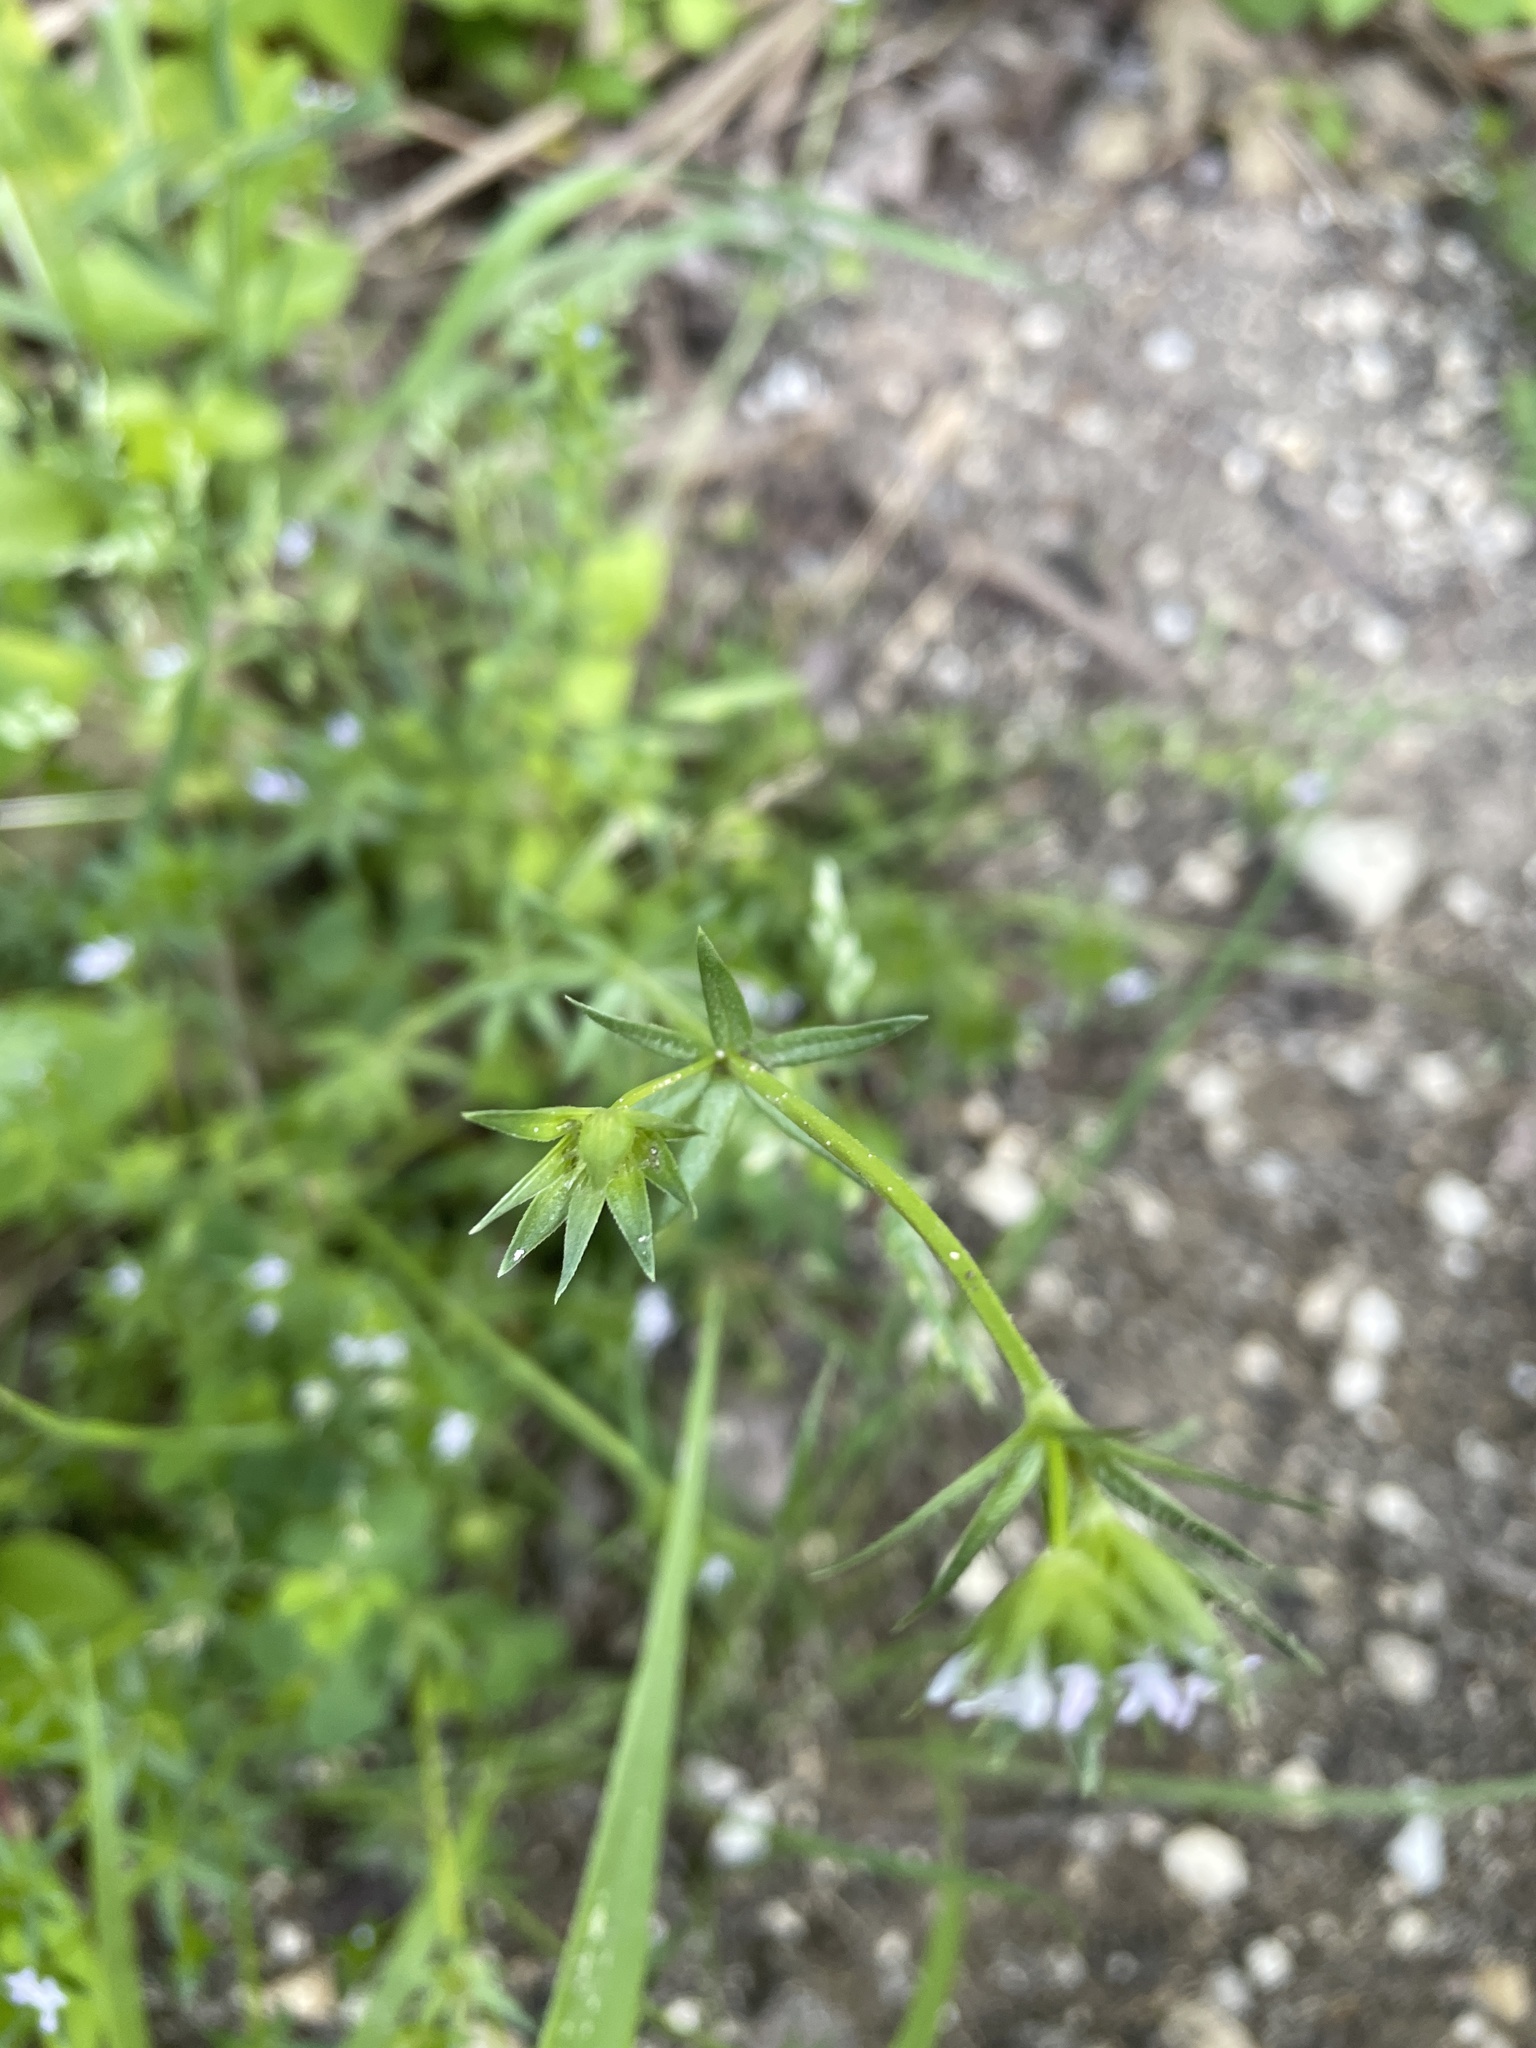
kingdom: Plantae
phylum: Tracheophyta
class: Magnoliopsida
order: Gentianales
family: Rubiaceae
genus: Sherardia
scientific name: Sherardia arvensis
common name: Field madder
